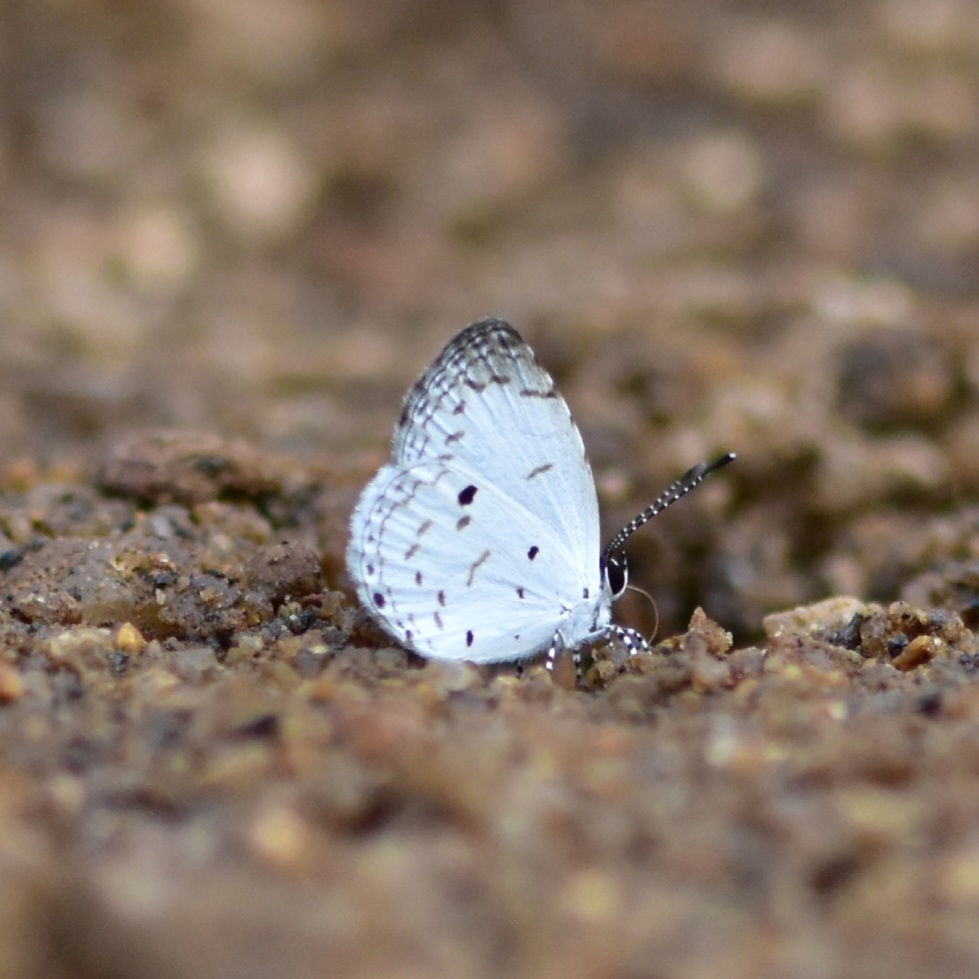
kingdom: Animalia
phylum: Arthropoda
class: Insecta
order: Lepidoptera
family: Lycaenidae
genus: Neopithecops
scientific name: Neopithecops zalmora
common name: Quaker
